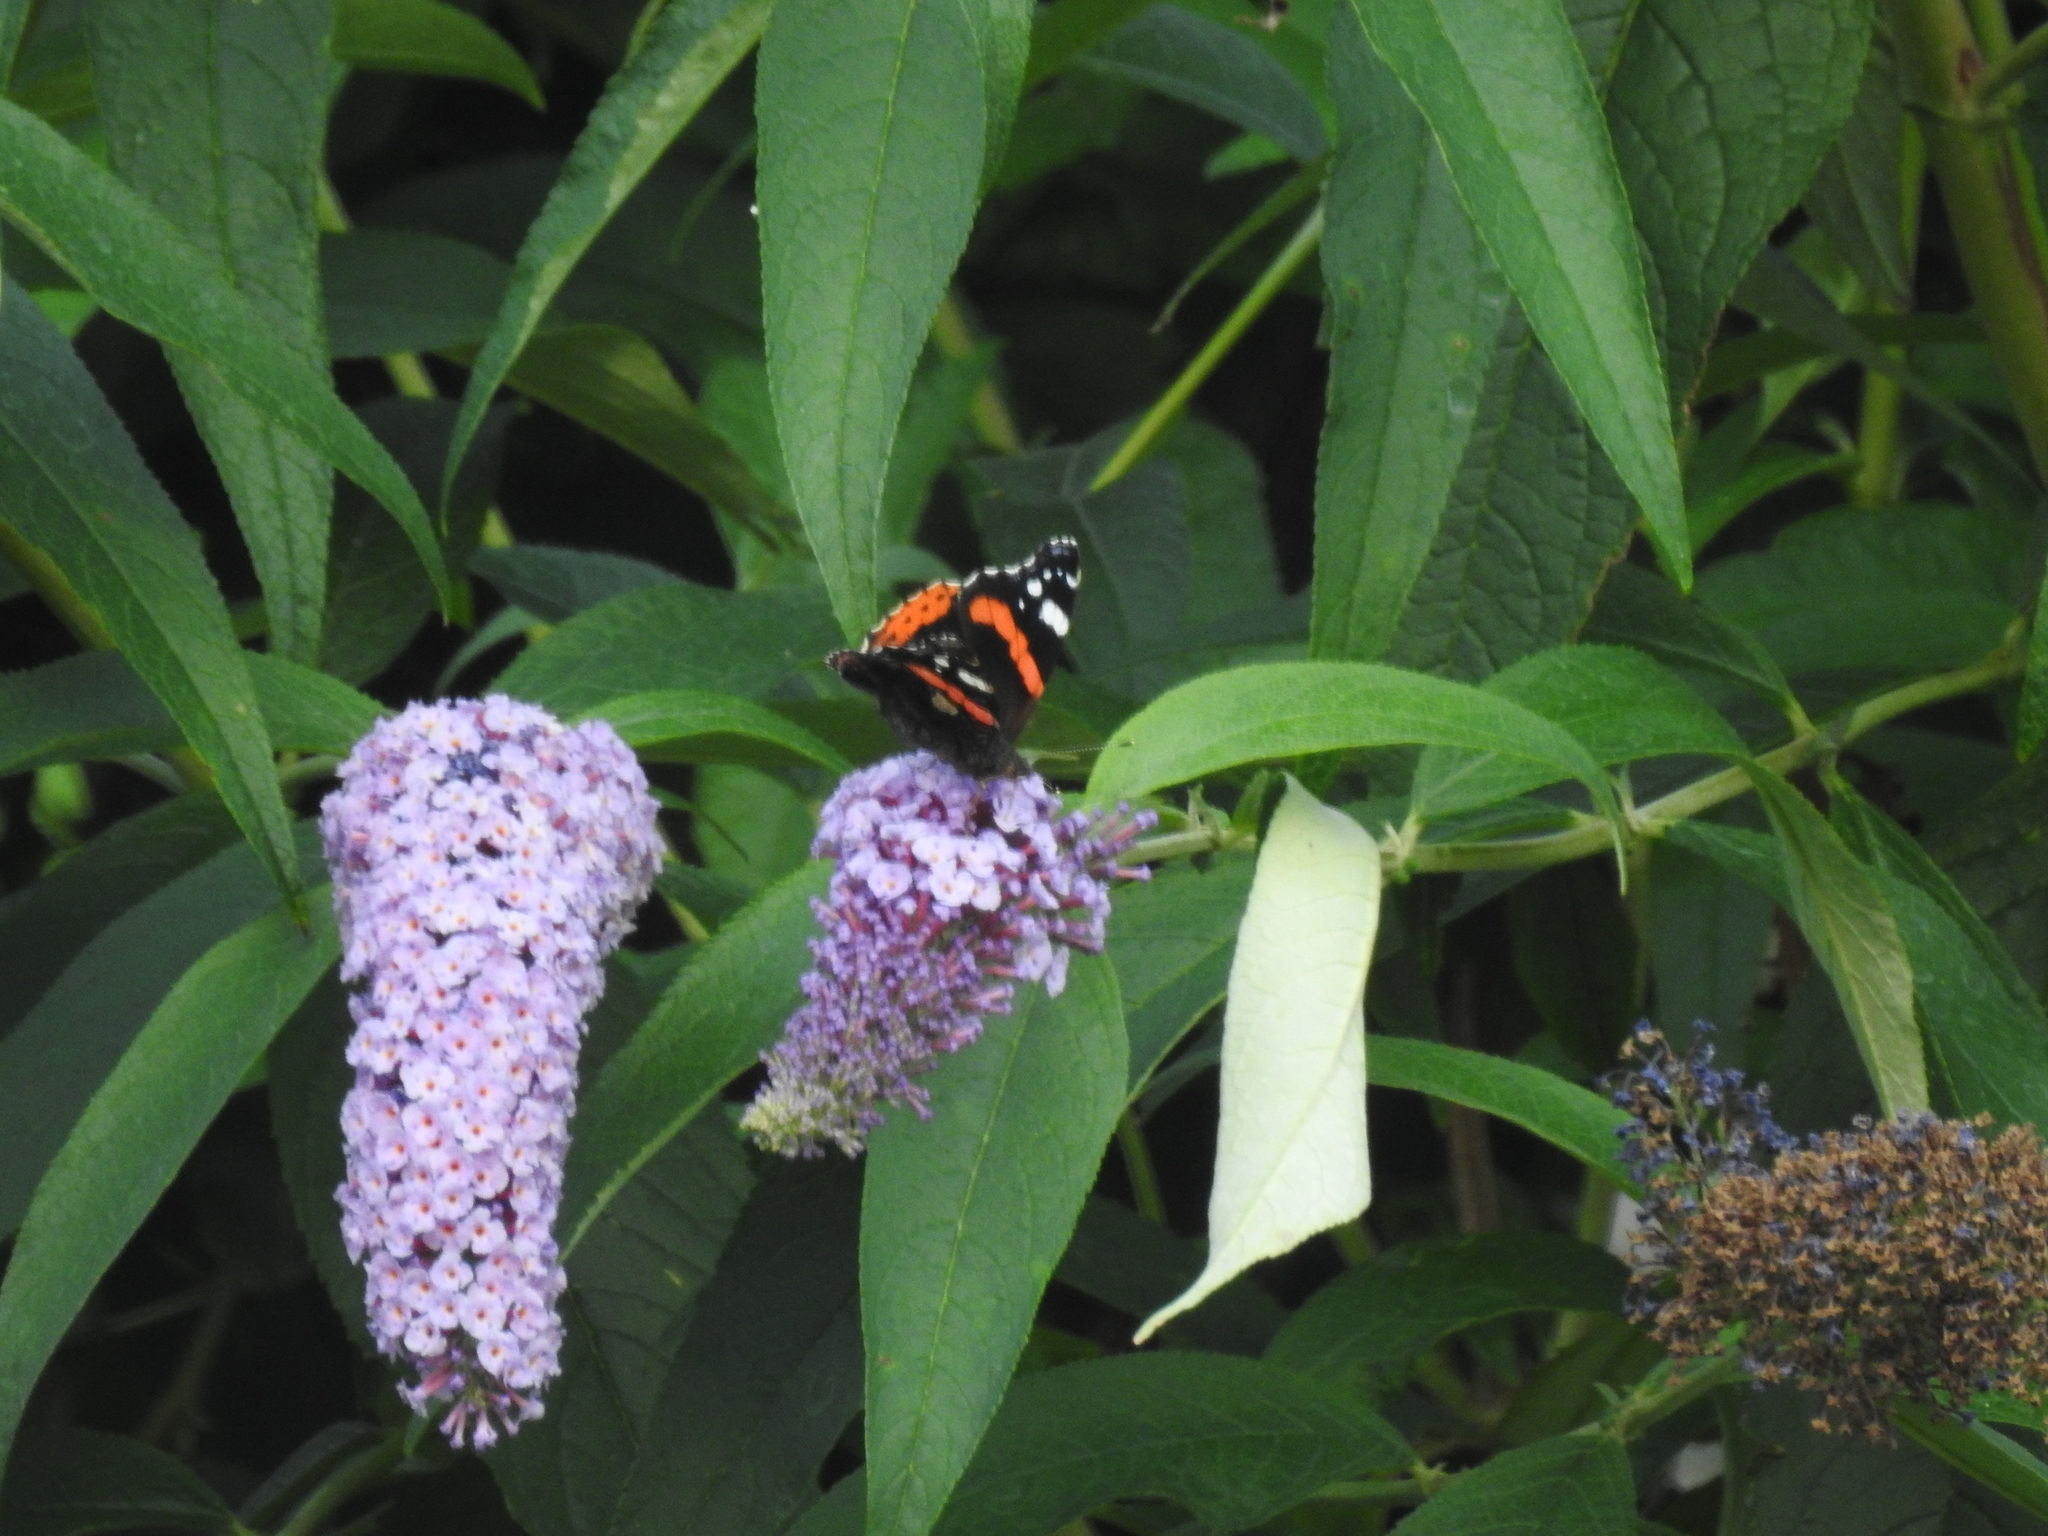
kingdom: Animalia
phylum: Arthropoda
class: Insecta
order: Lepidoptera
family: Nymphalidae
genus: Vanessa
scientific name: Vanessa atalanta
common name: Red admiral
